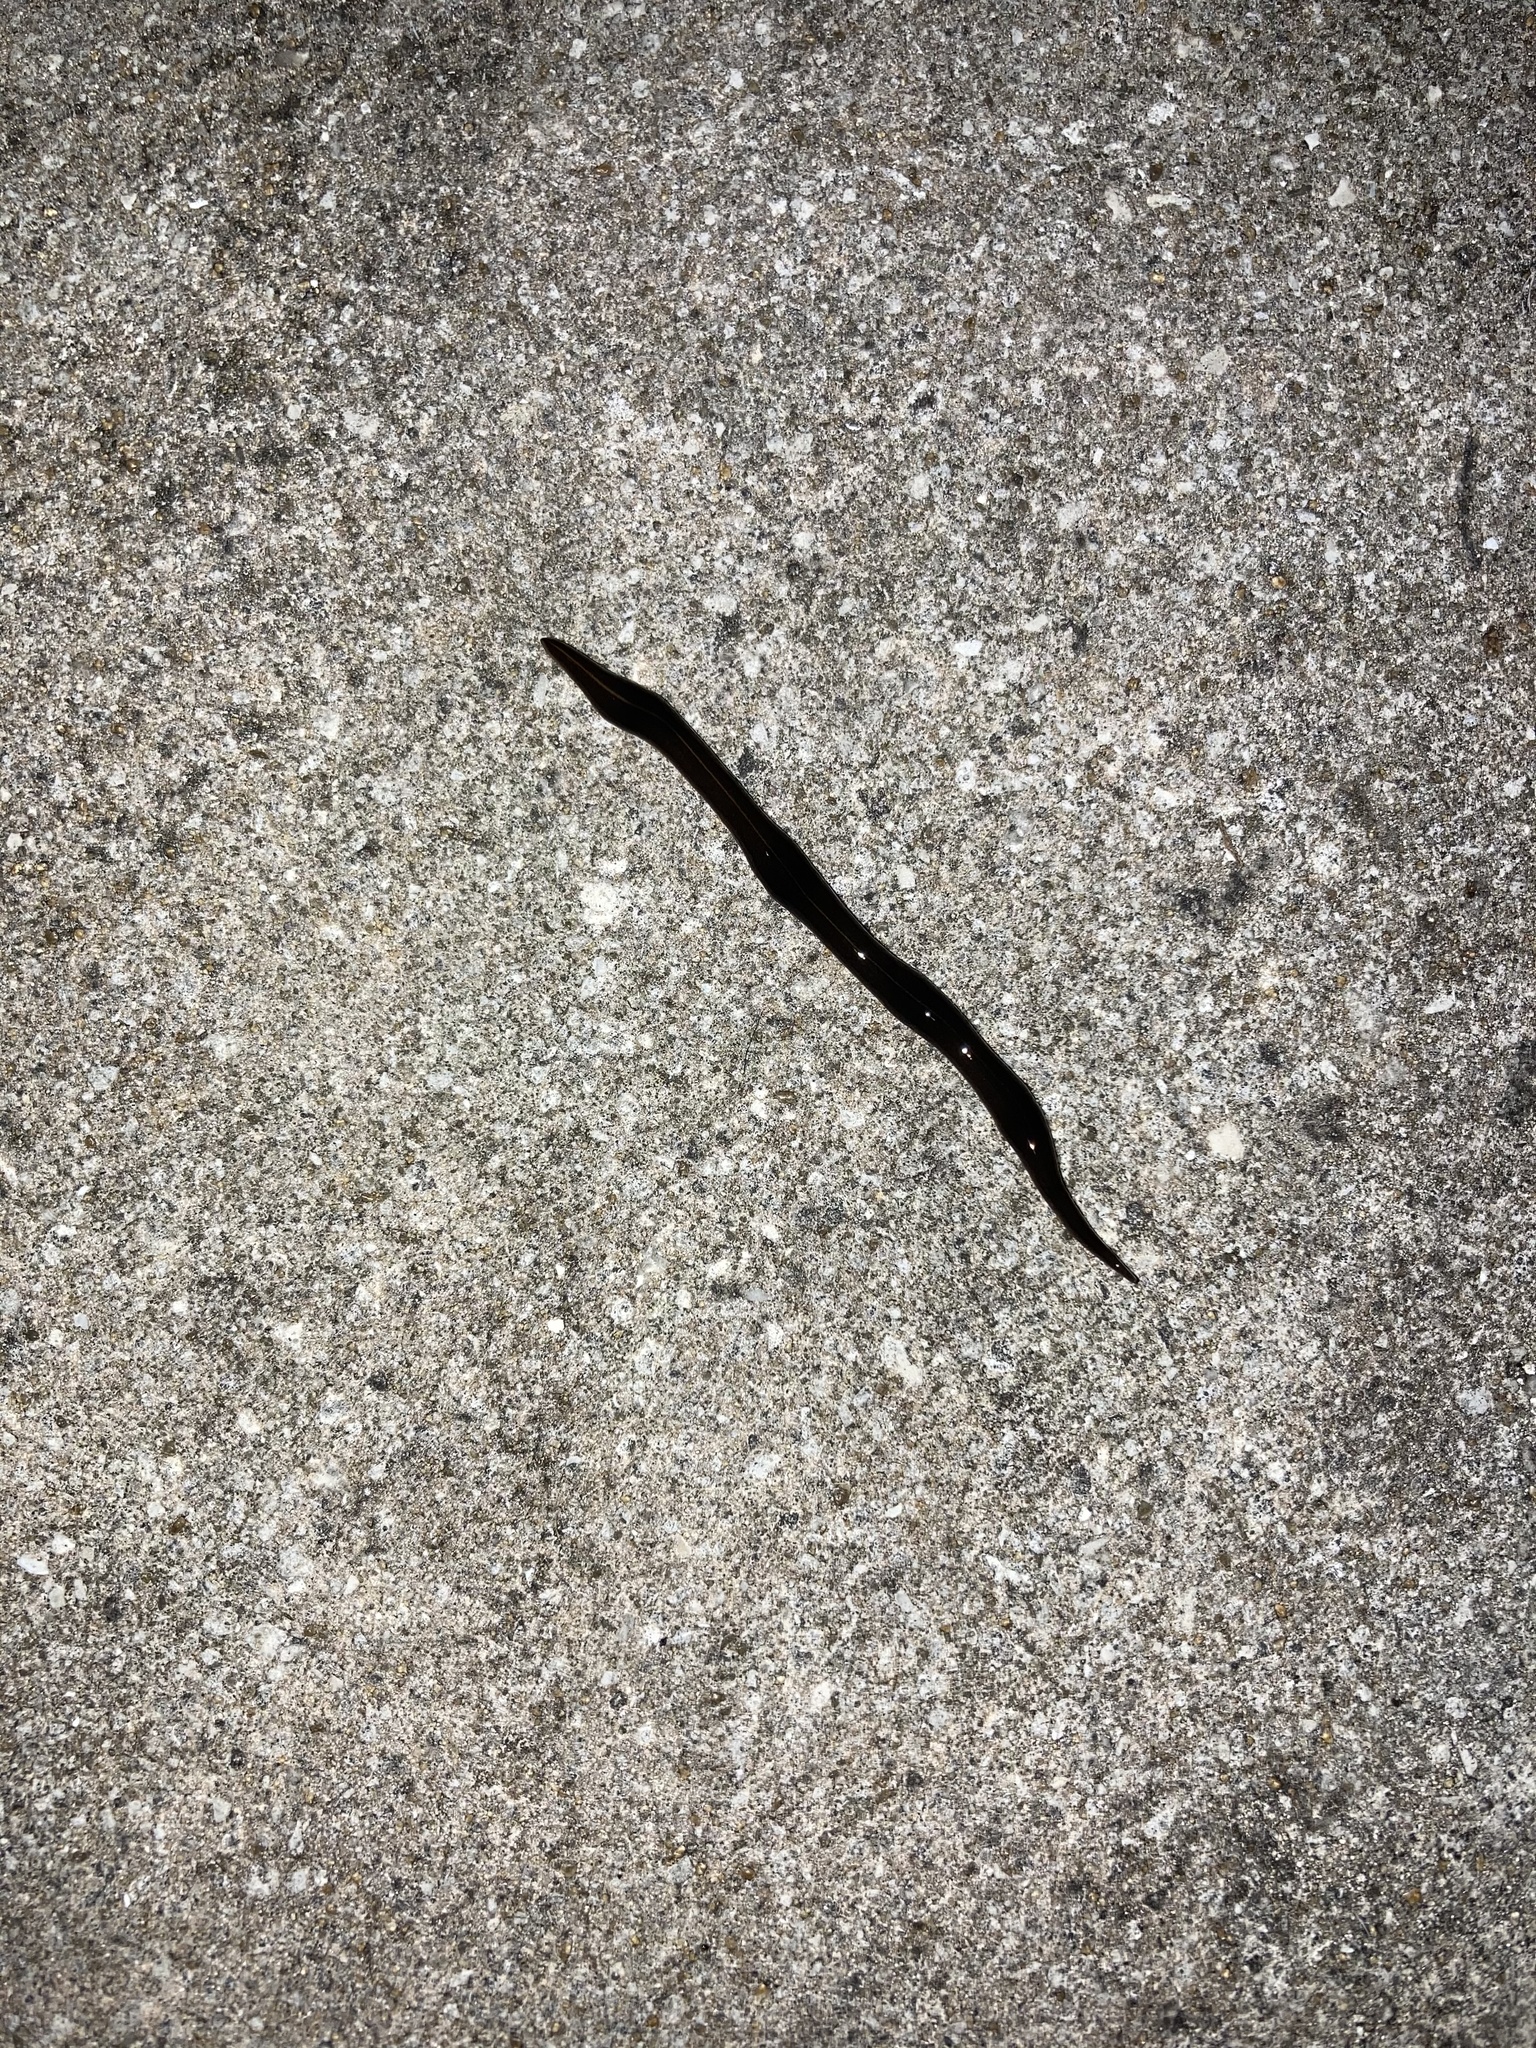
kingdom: Animalia
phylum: Platyhelminthes
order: Tricladida
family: Geoplanidae
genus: Platydemus
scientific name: Platydemus manokwari
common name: New guinea flatworm
